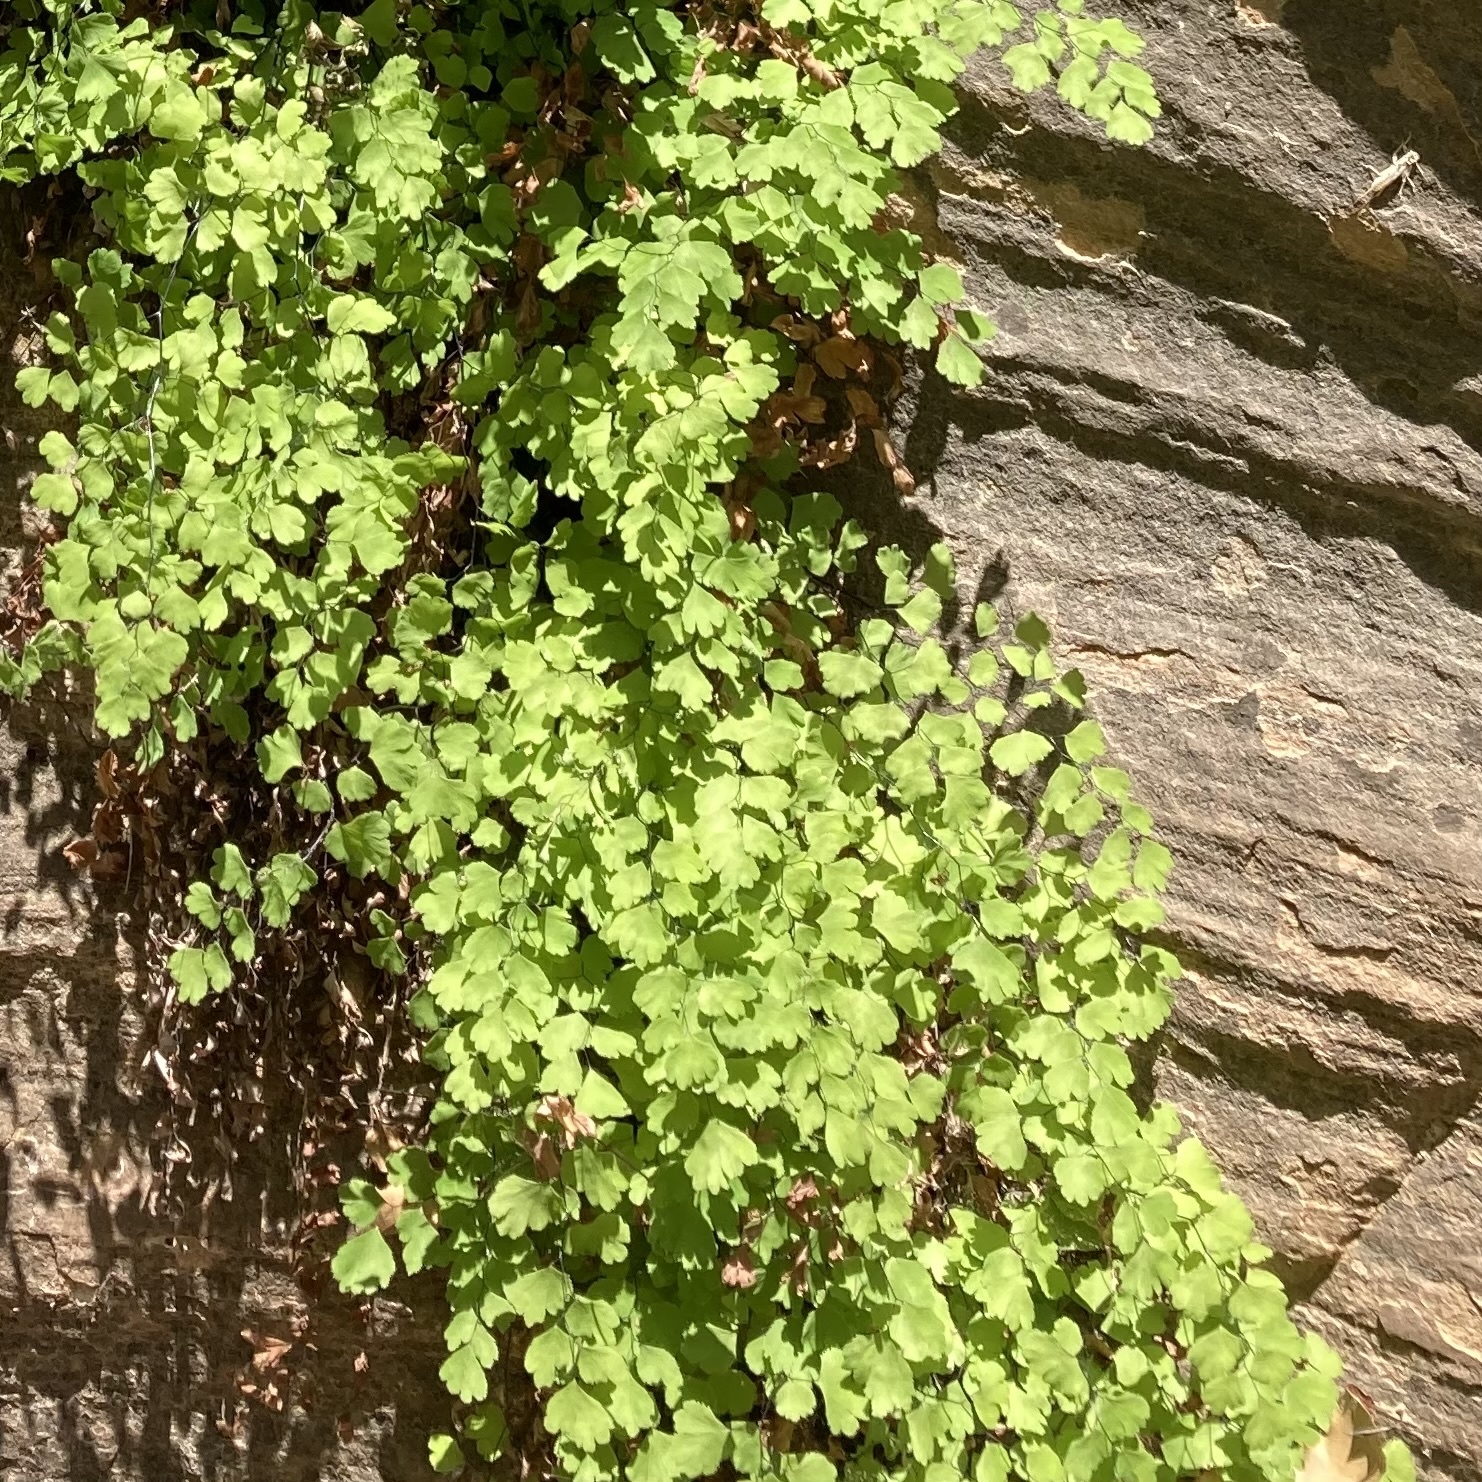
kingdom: Plantae
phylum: Tracheophyta
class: Polypodiopsida
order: Polypodiales
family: Pteridaceae
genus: Adiantum
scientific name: Adiantum capillus-veneris
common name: Maidenhair fern
